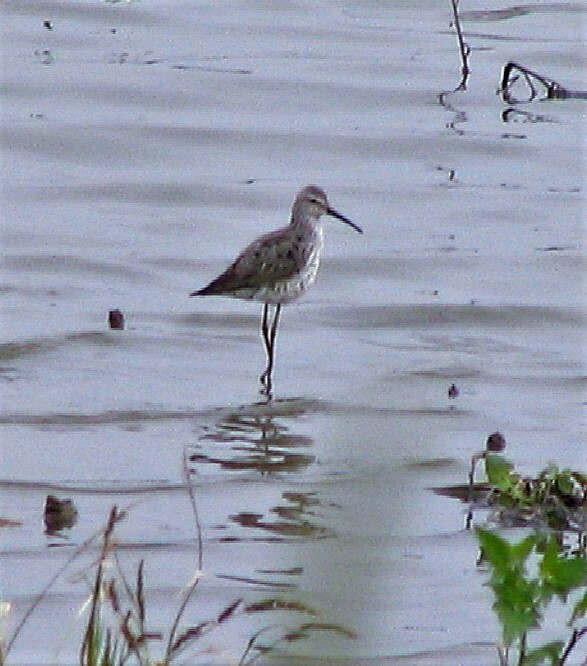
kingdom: Animalia
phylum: Chordata
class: Aves
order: Charadriiformes
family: Scolopacidae
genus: Calidris
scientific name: Calidris himantopus
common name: Stilt sandpiper
